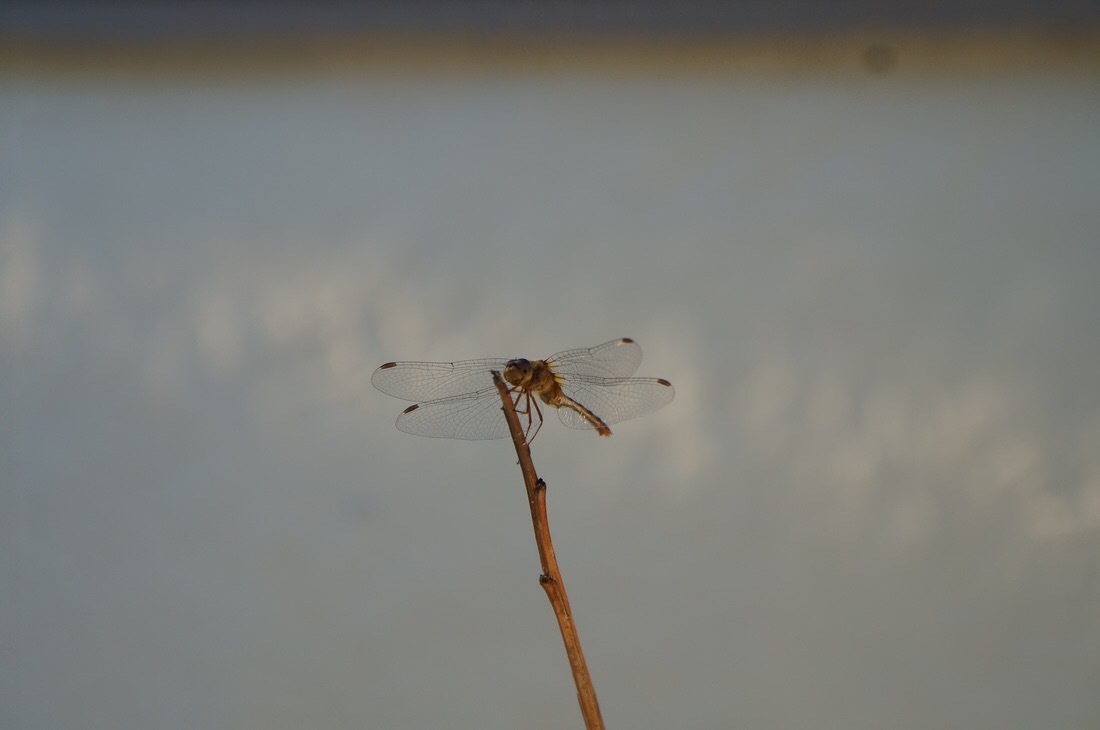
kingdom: Animalia
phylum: Arthropoda
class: Insecta
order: Odonata
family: Libellulidae
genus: Sympetrum
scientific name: Sympetrum vicinum
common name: Autumn meadowhawk
